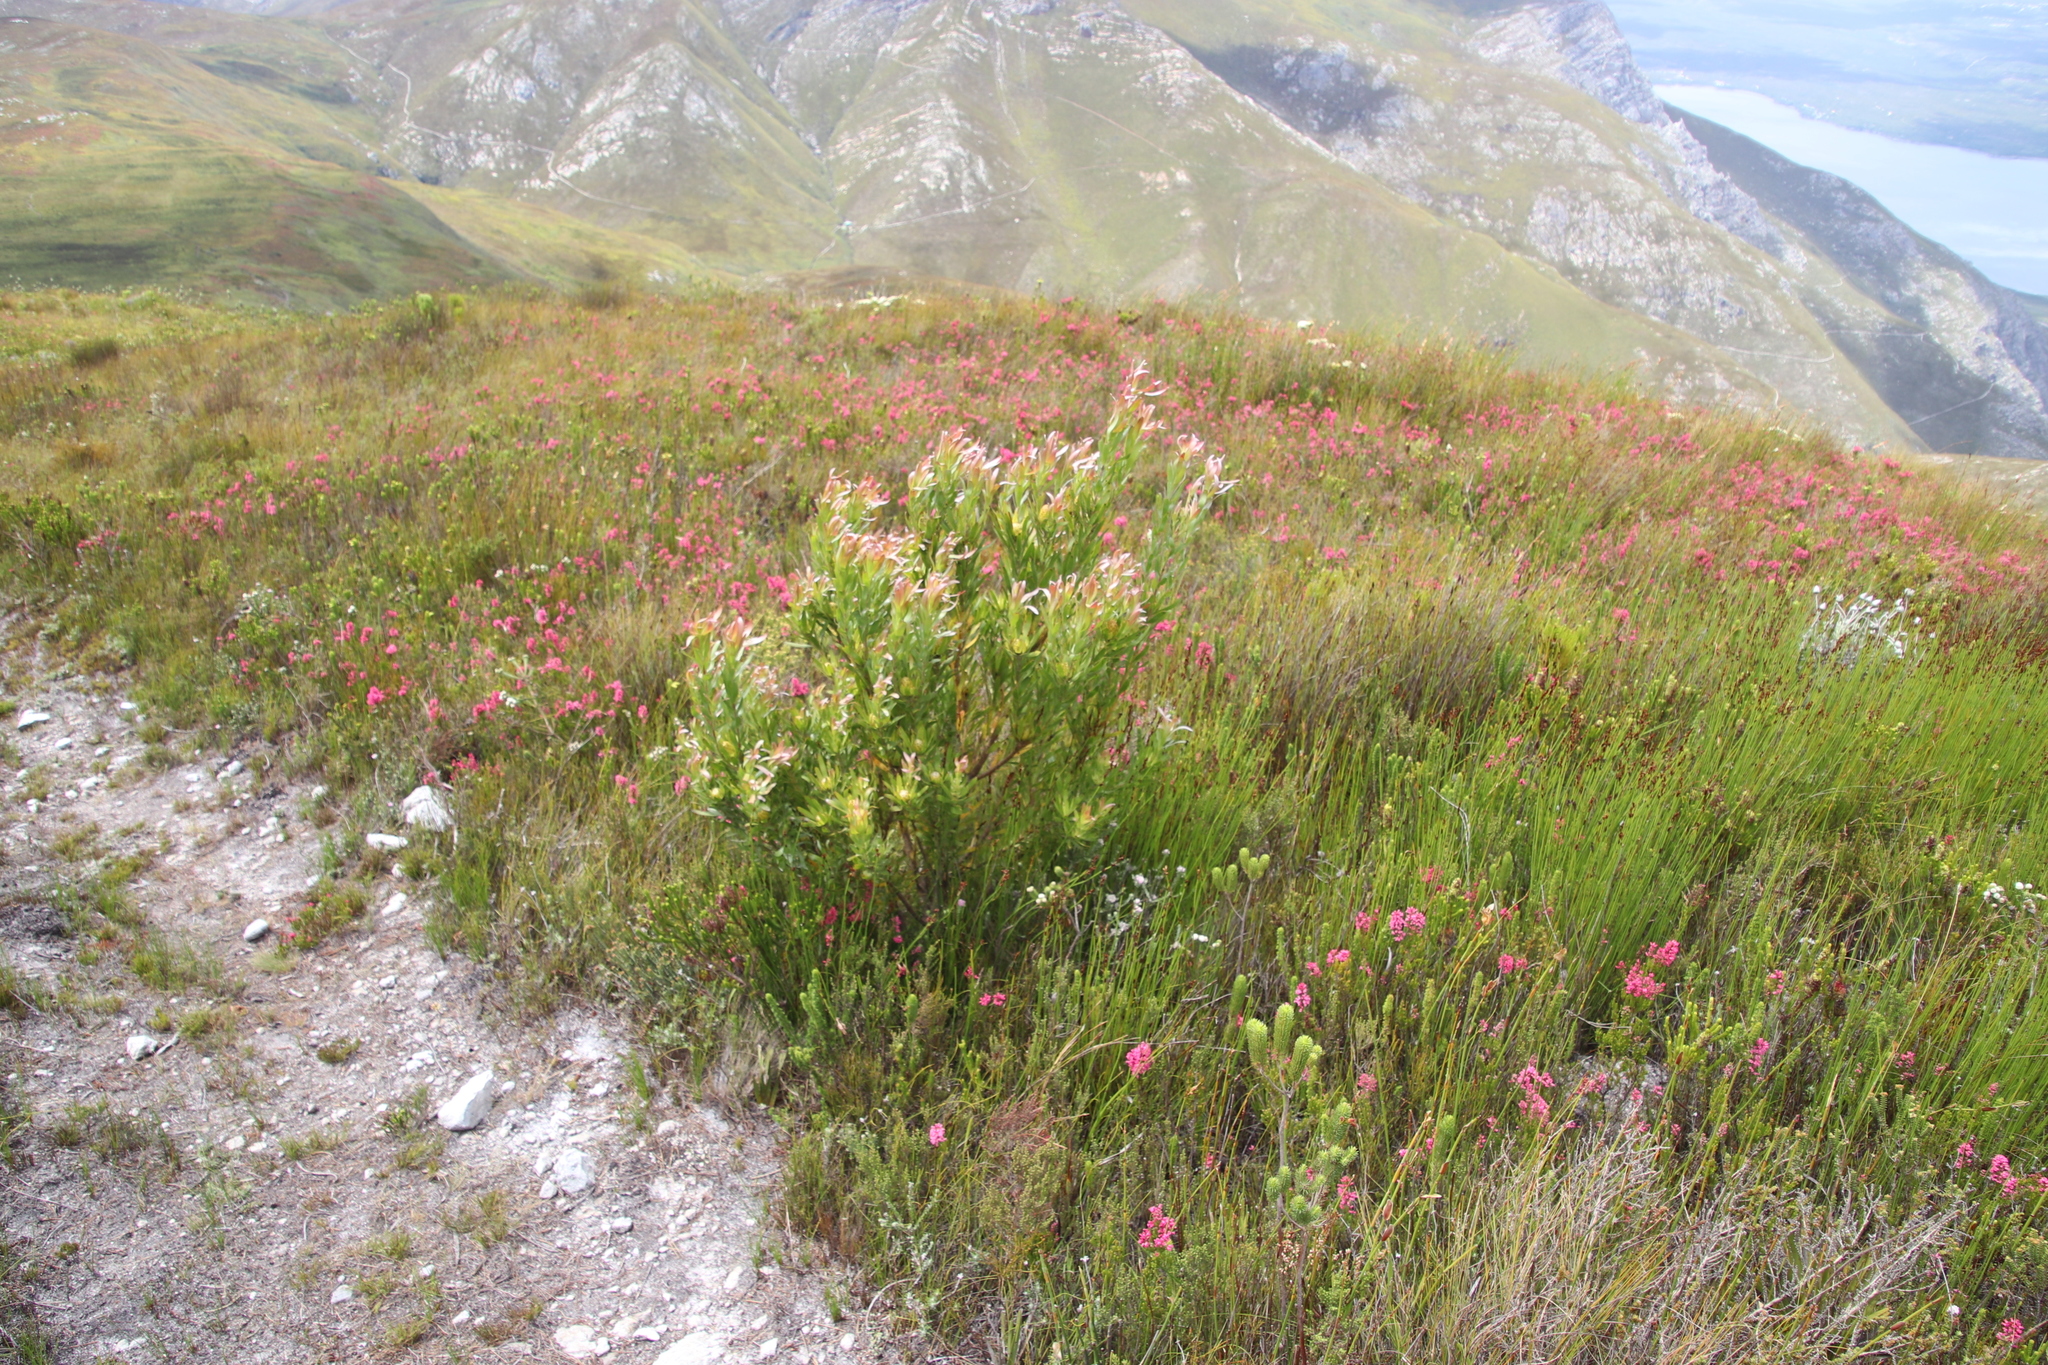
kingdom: Plantae
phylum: Tracheophyta
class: Magnoliopsida
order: Proteales
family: Proteaceae
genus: Leucadendron
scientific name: Leucadendron xanthoconus
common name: Sickle-leaf conebush
